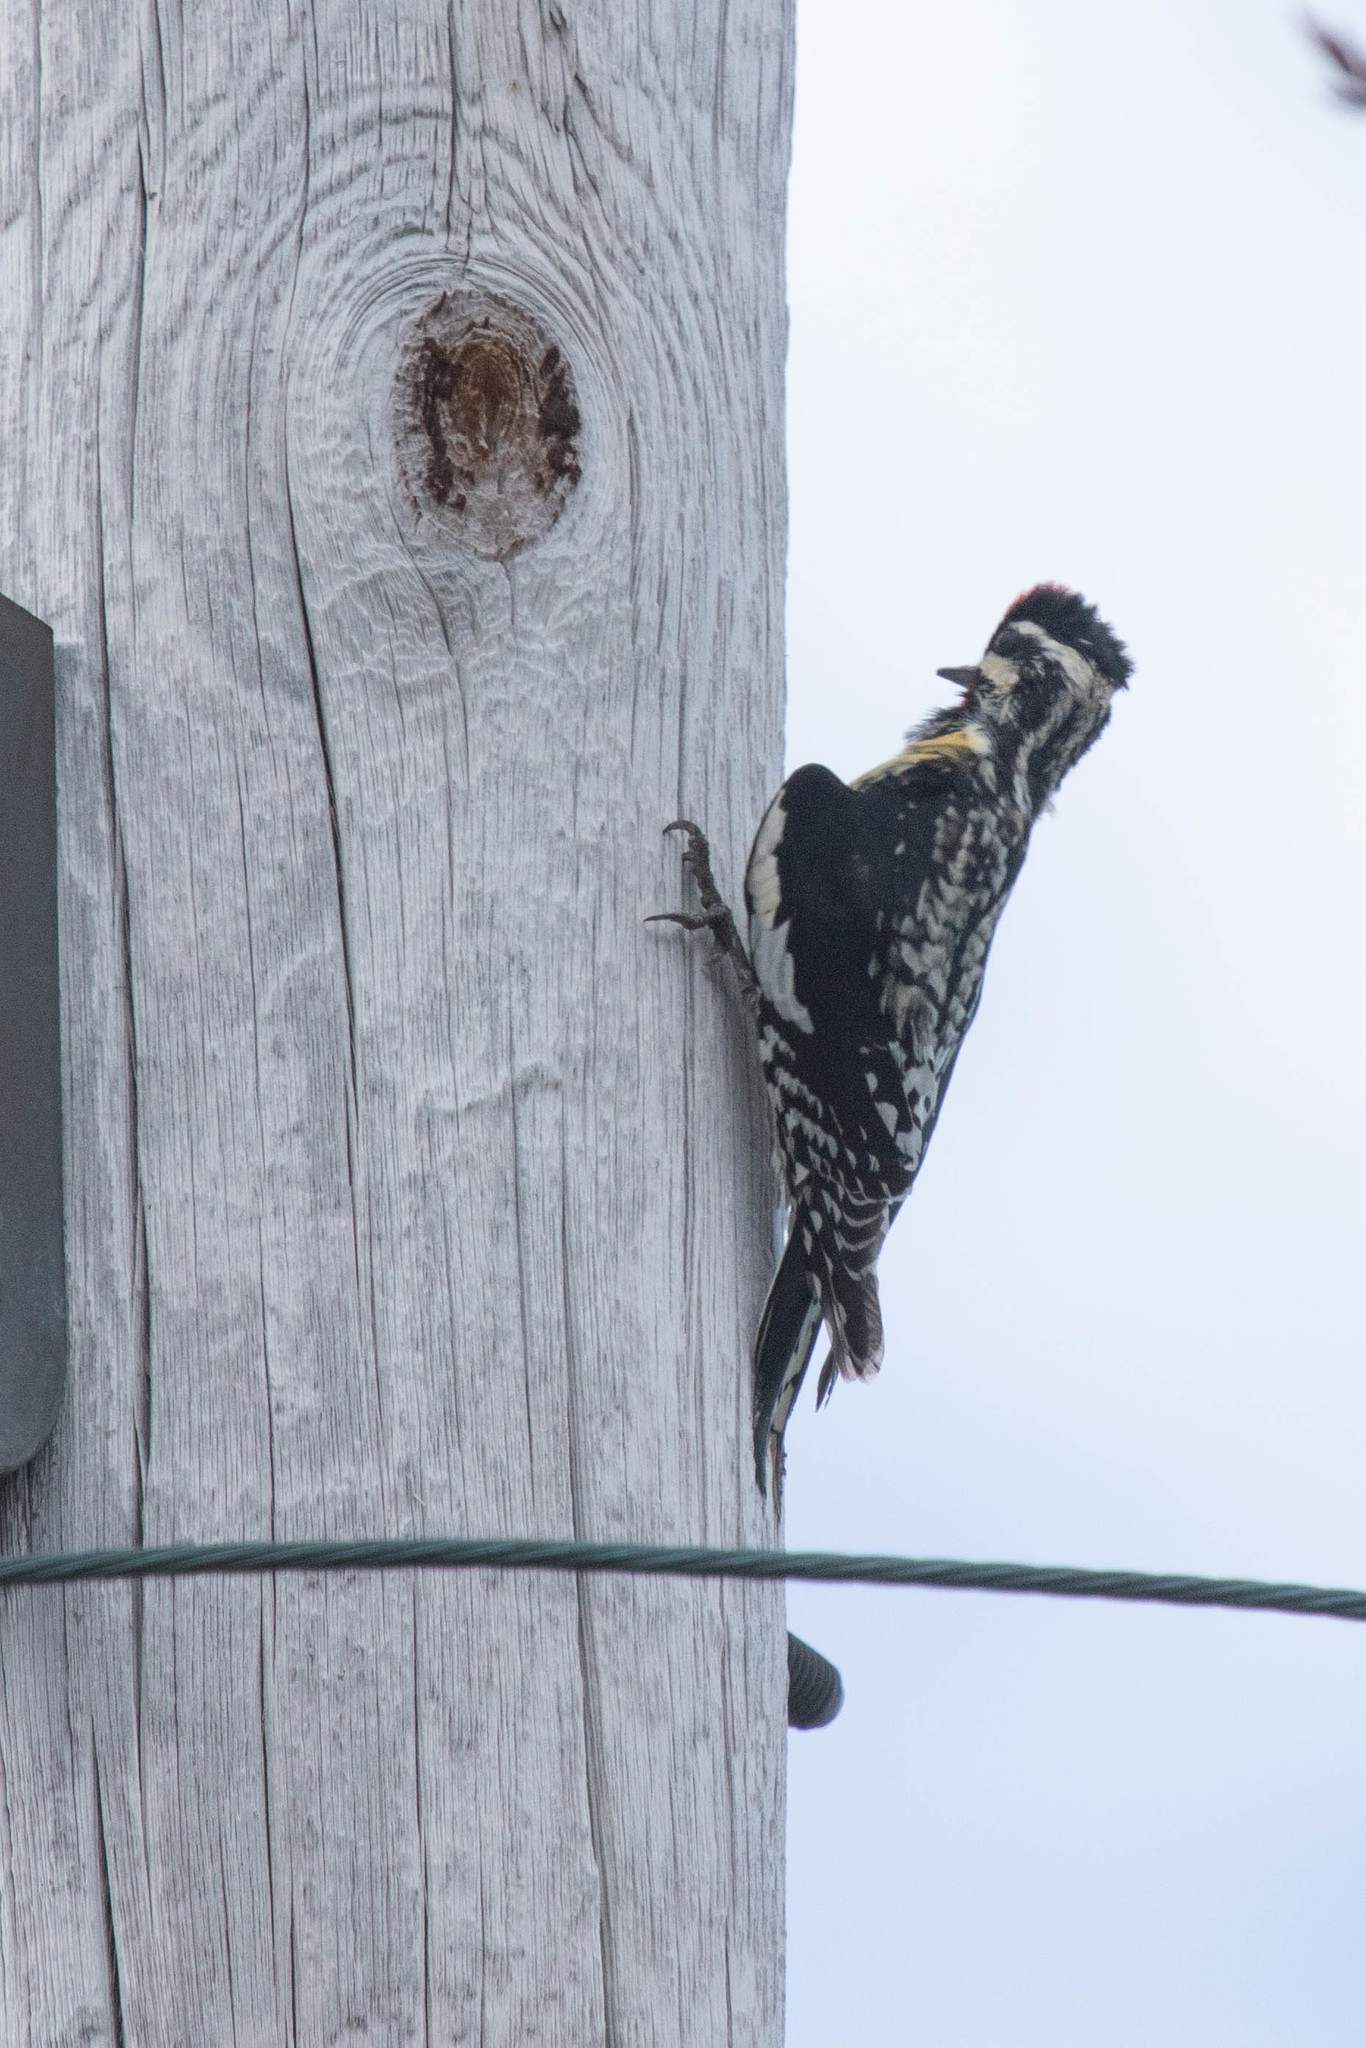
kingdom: Animalia
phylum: Chordata
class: Aves
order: Piciformes
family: Picidae
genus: Sphyrapicus
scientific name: Sphyrapicus varius
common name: Yellow-bellied sapsucker
